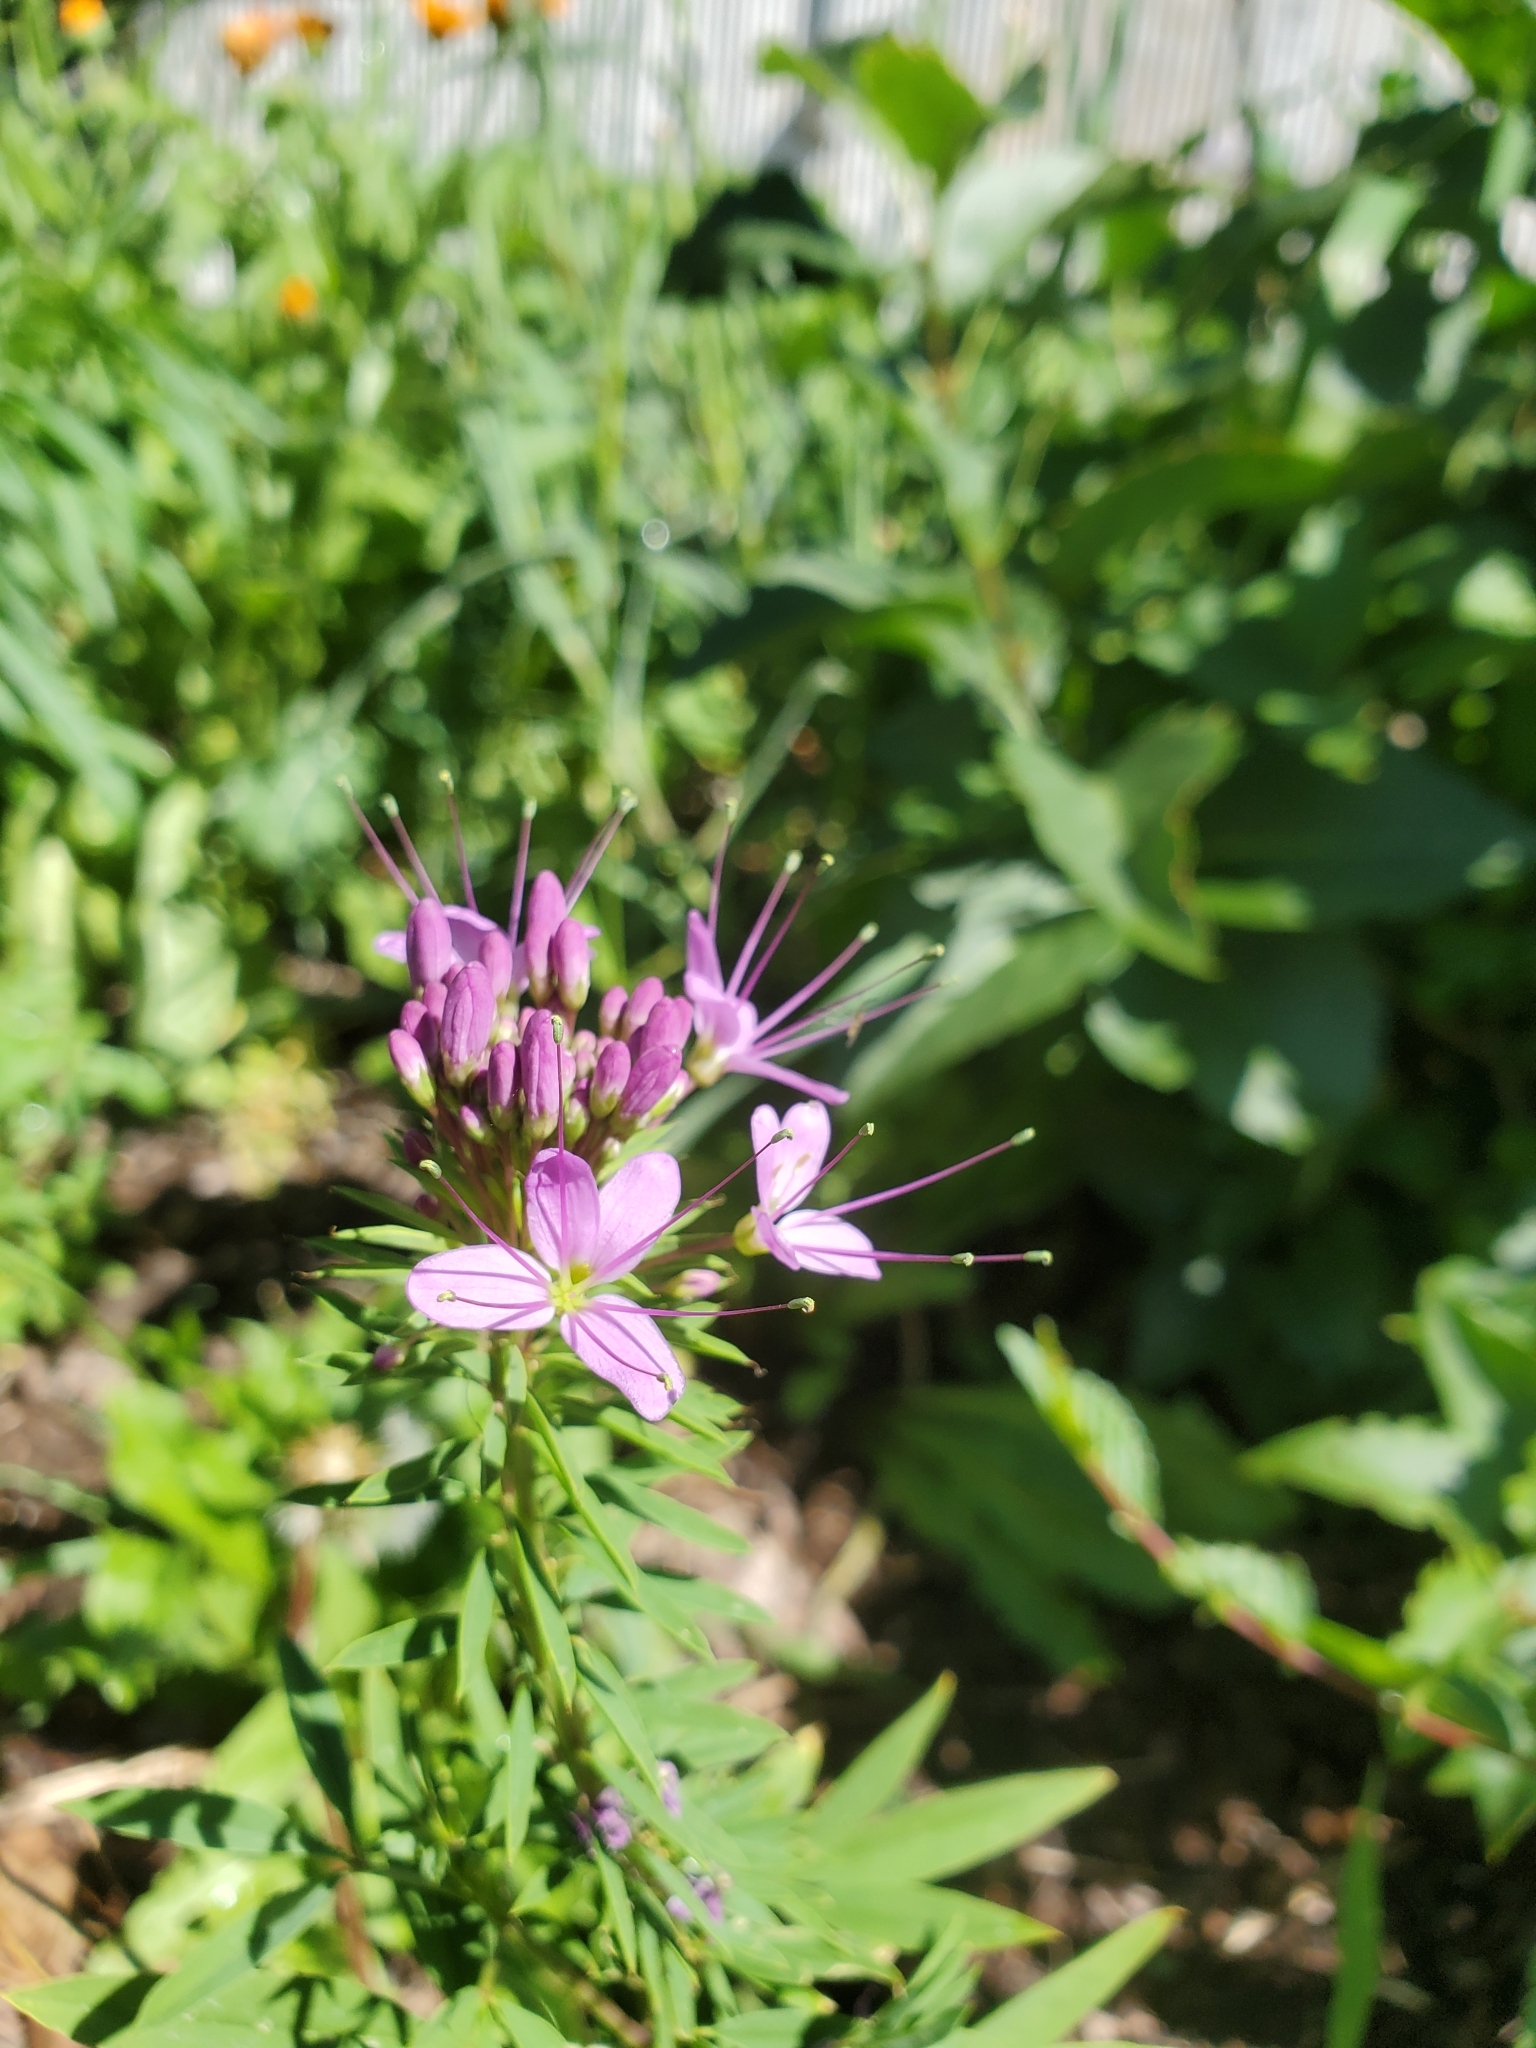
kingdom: Plantae
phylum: Tracheophyta
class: Magnoliopsida
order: Brassicales
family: Cleomaceae
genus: Cleomella
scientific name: Cleomella serrulata
